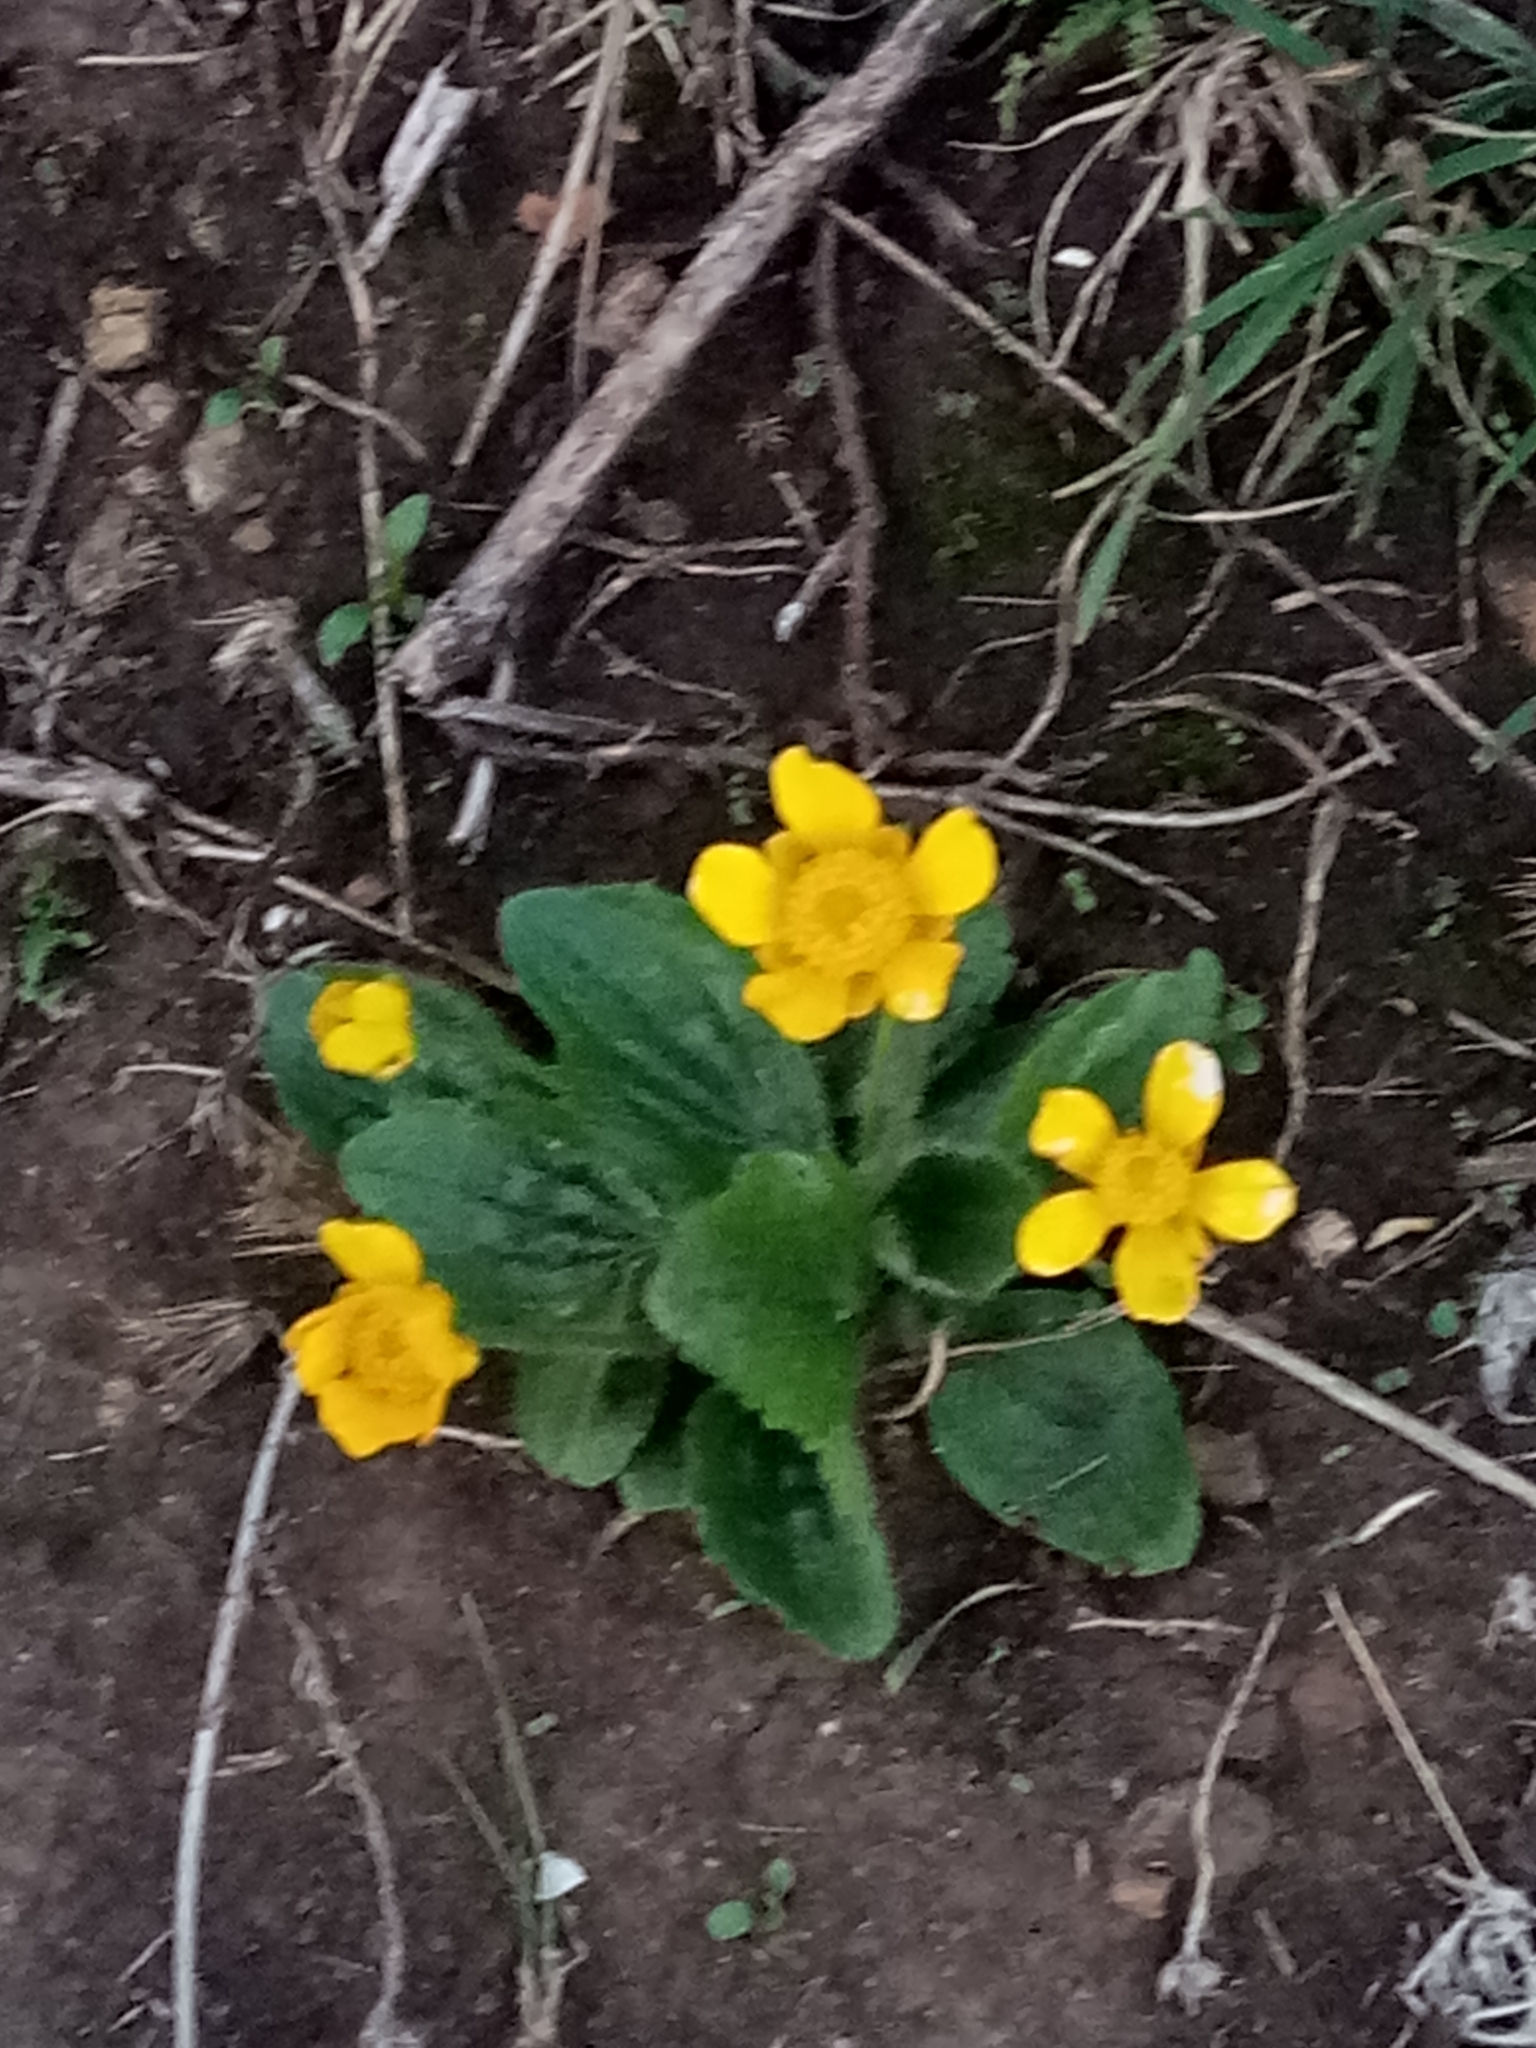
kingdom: Plantae
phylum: Tracheophyta
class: Magnoliopsida
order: Ranunculales
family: Ranunculaceae
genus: Ranunculus
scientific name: Ranunculus bullatus
